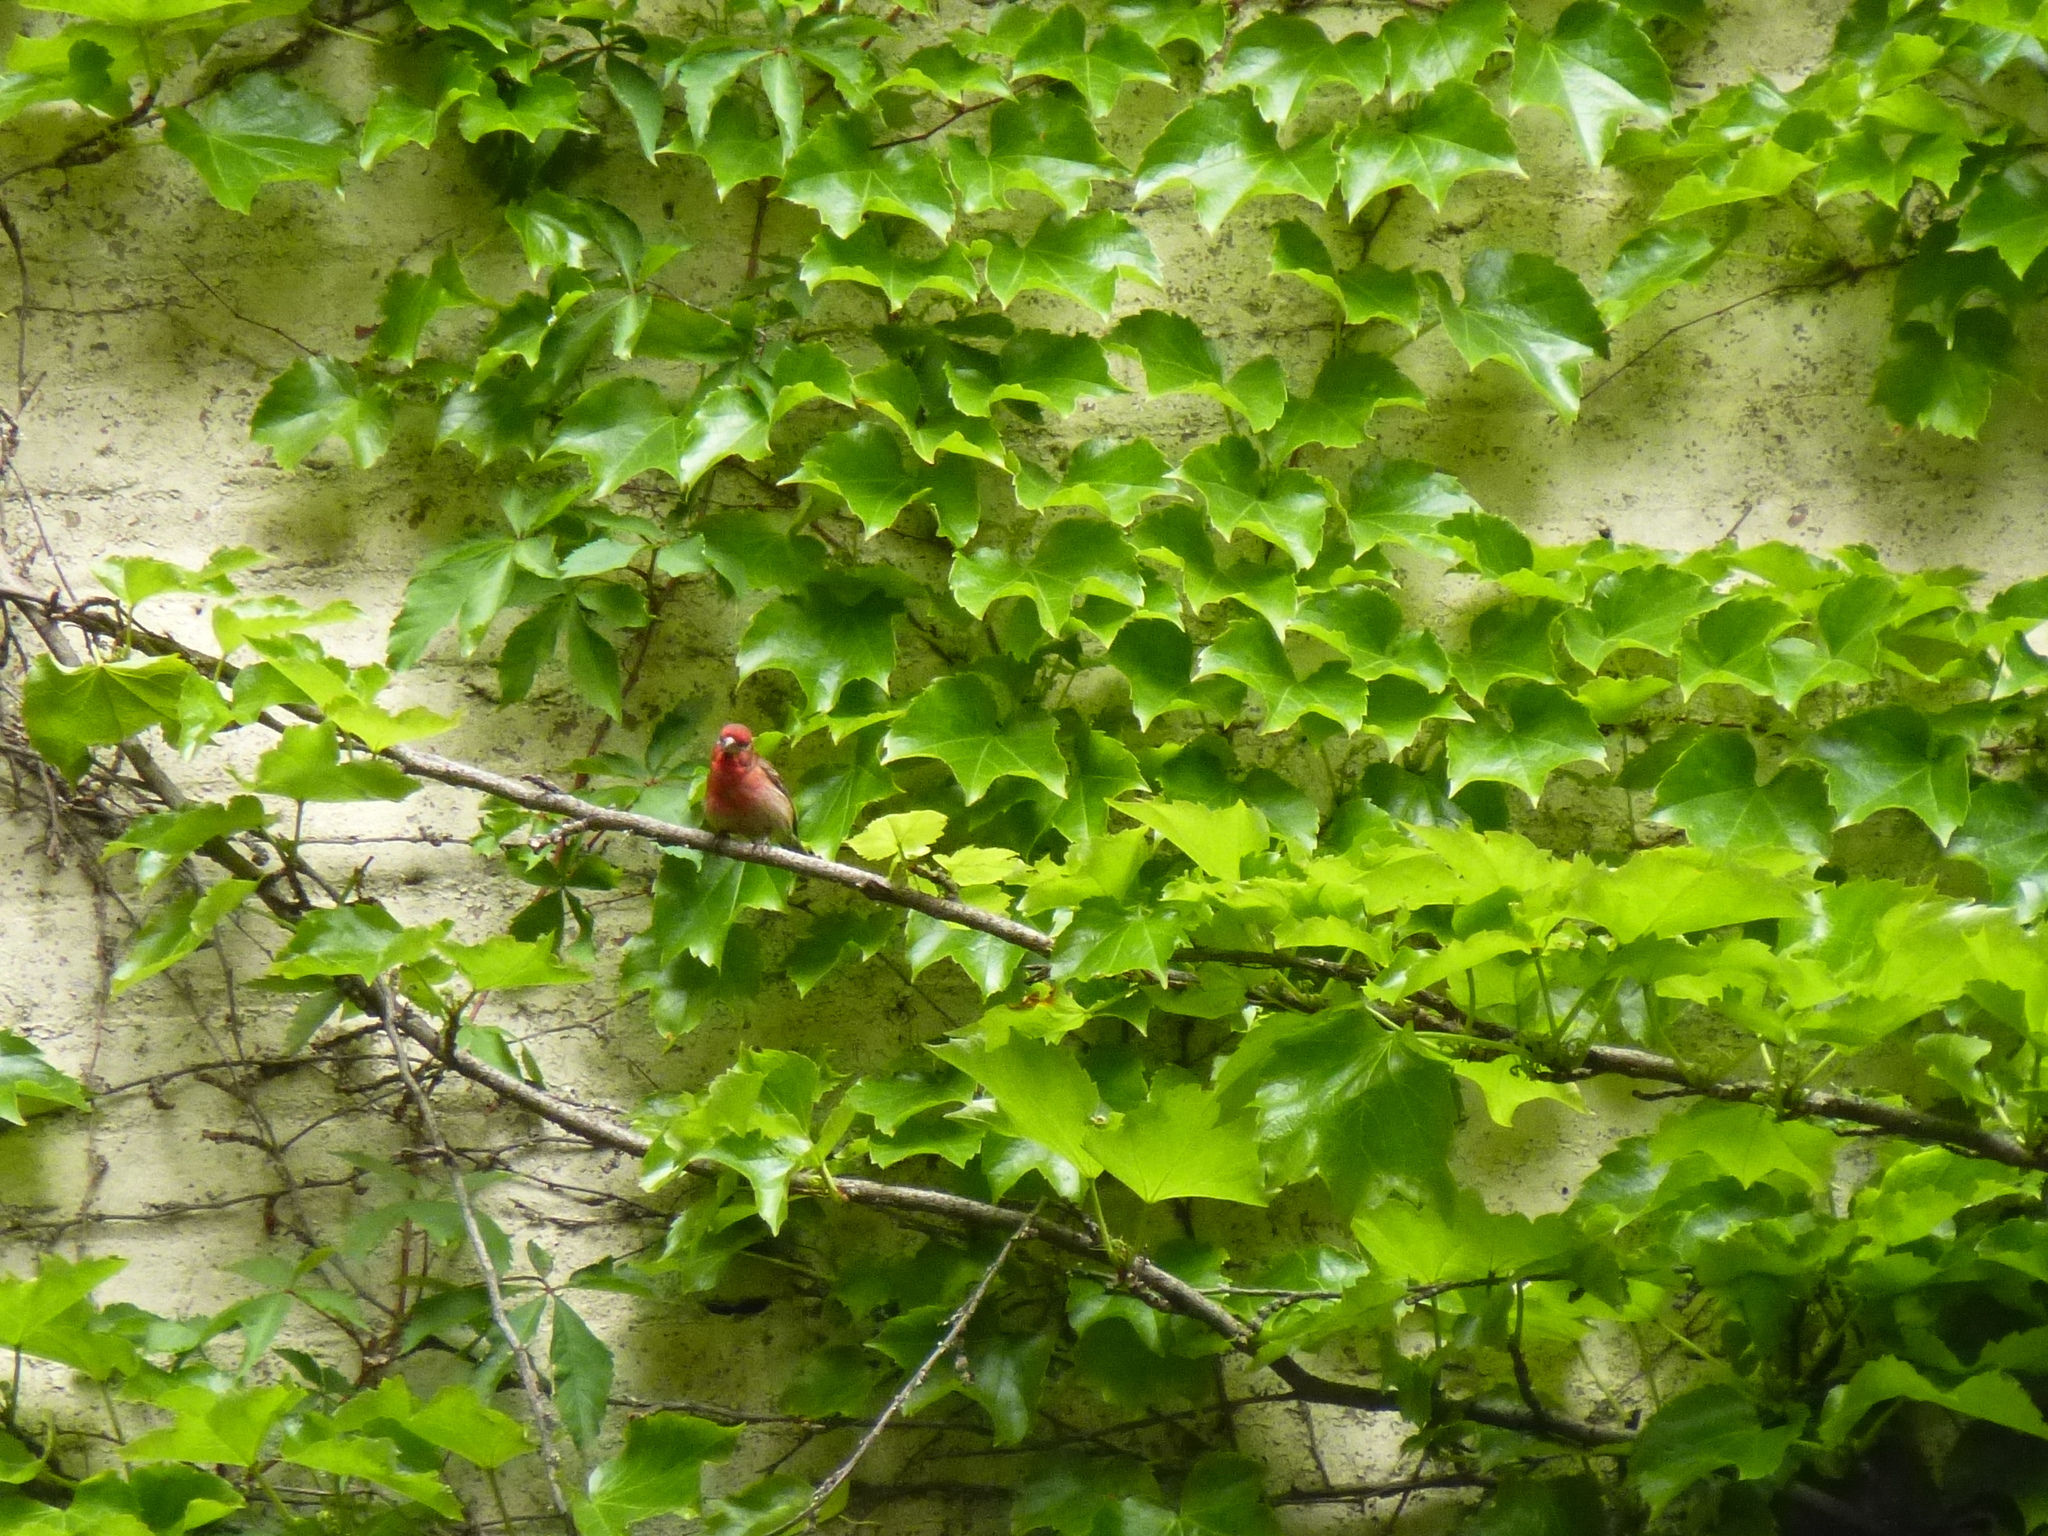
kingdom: Animalia
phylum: Chordata
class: Aves
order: Passeriformes
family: Fringillidae
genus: Haemorhous
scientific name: Haemorhous mexicanus
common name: House finch
